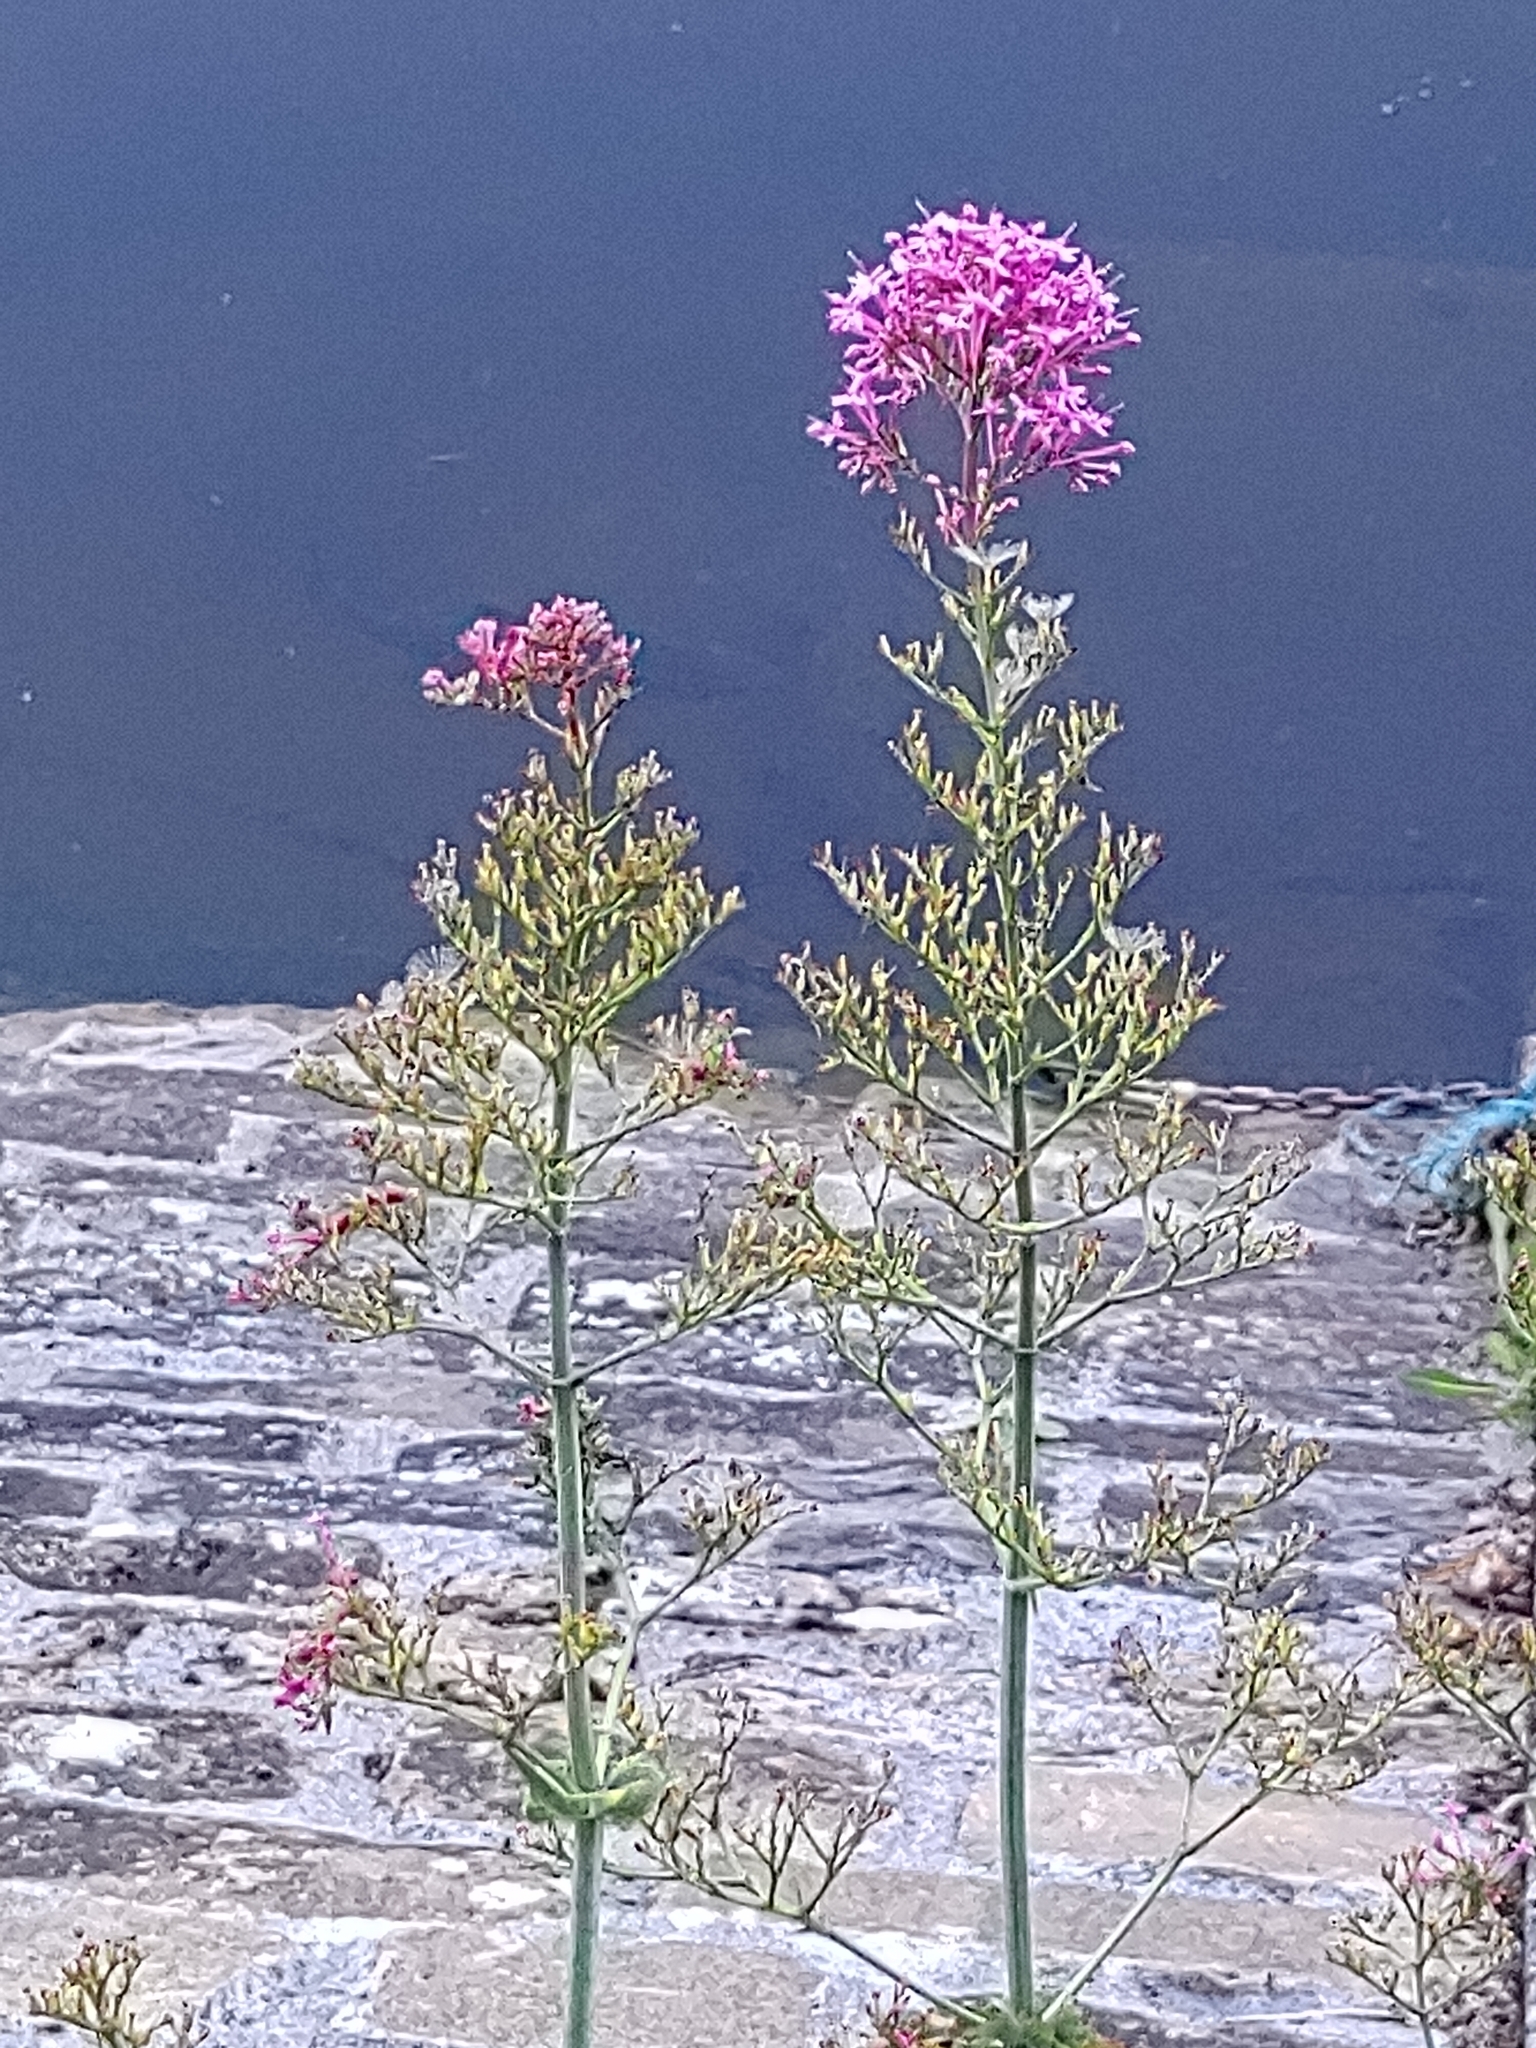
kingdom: Plantae
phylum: Tracheophyta
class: Magnoliopsida
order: Dipsacales
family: Caprifoliaceae
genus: Centranthus
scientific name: Centranthus ruber
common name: Red valerian
